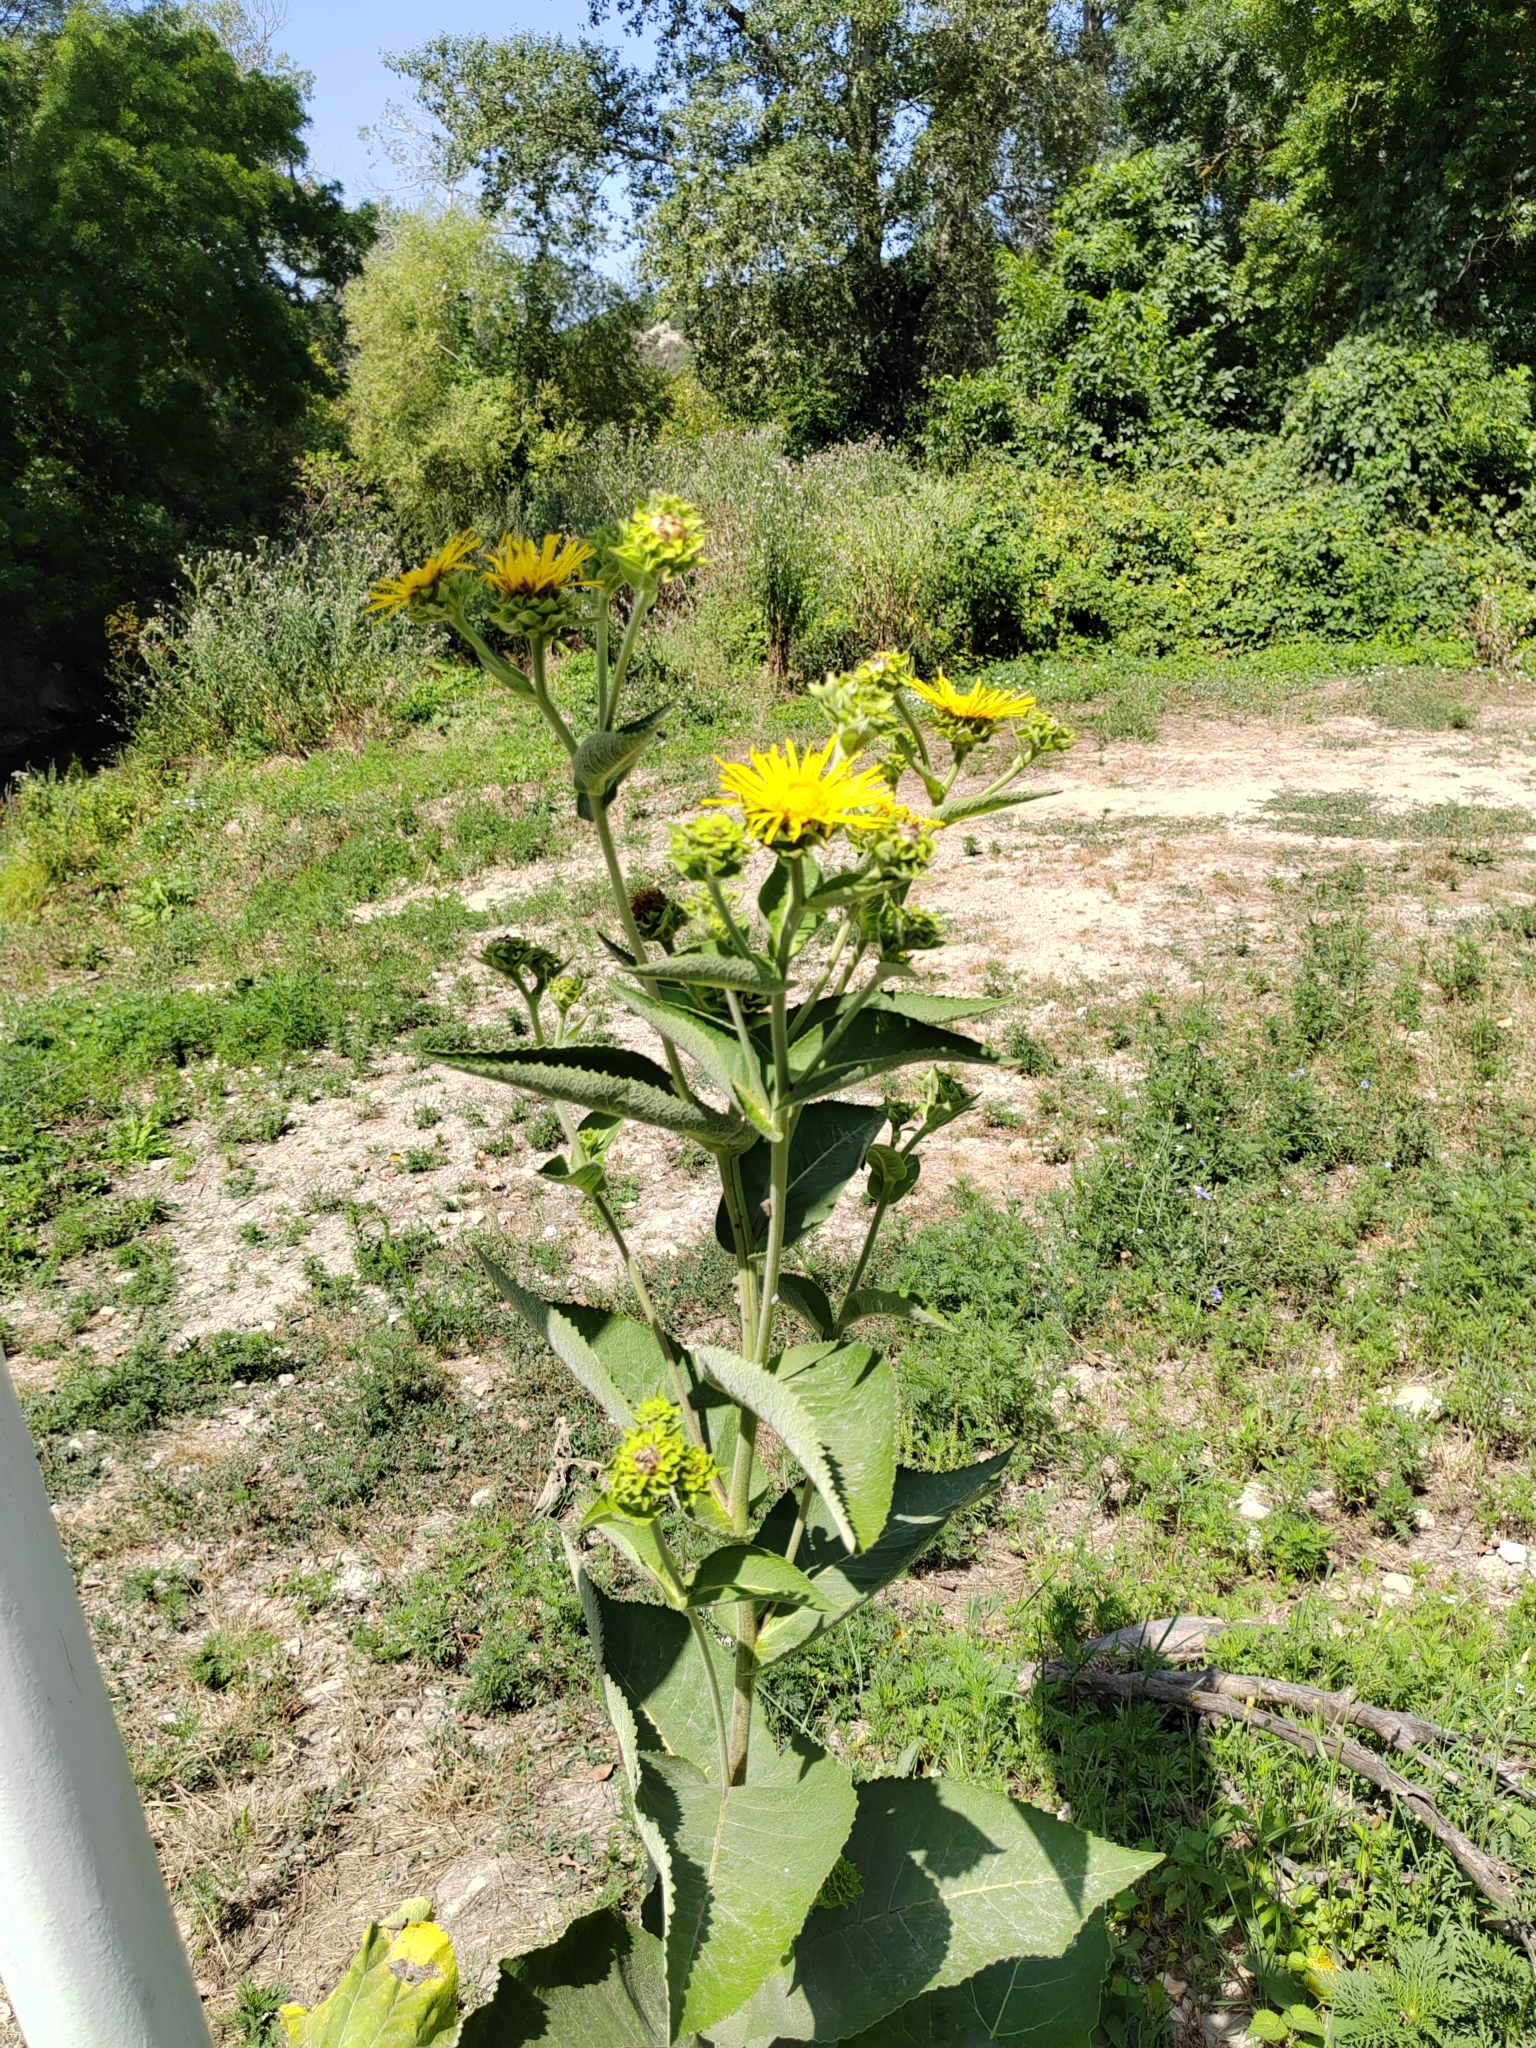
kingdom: Plantae
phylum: Tracheophyta
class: Magnoliopsida
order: Asterales
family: Asteraceae
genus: Inula
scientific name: Inula helenium
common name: Elecampane
